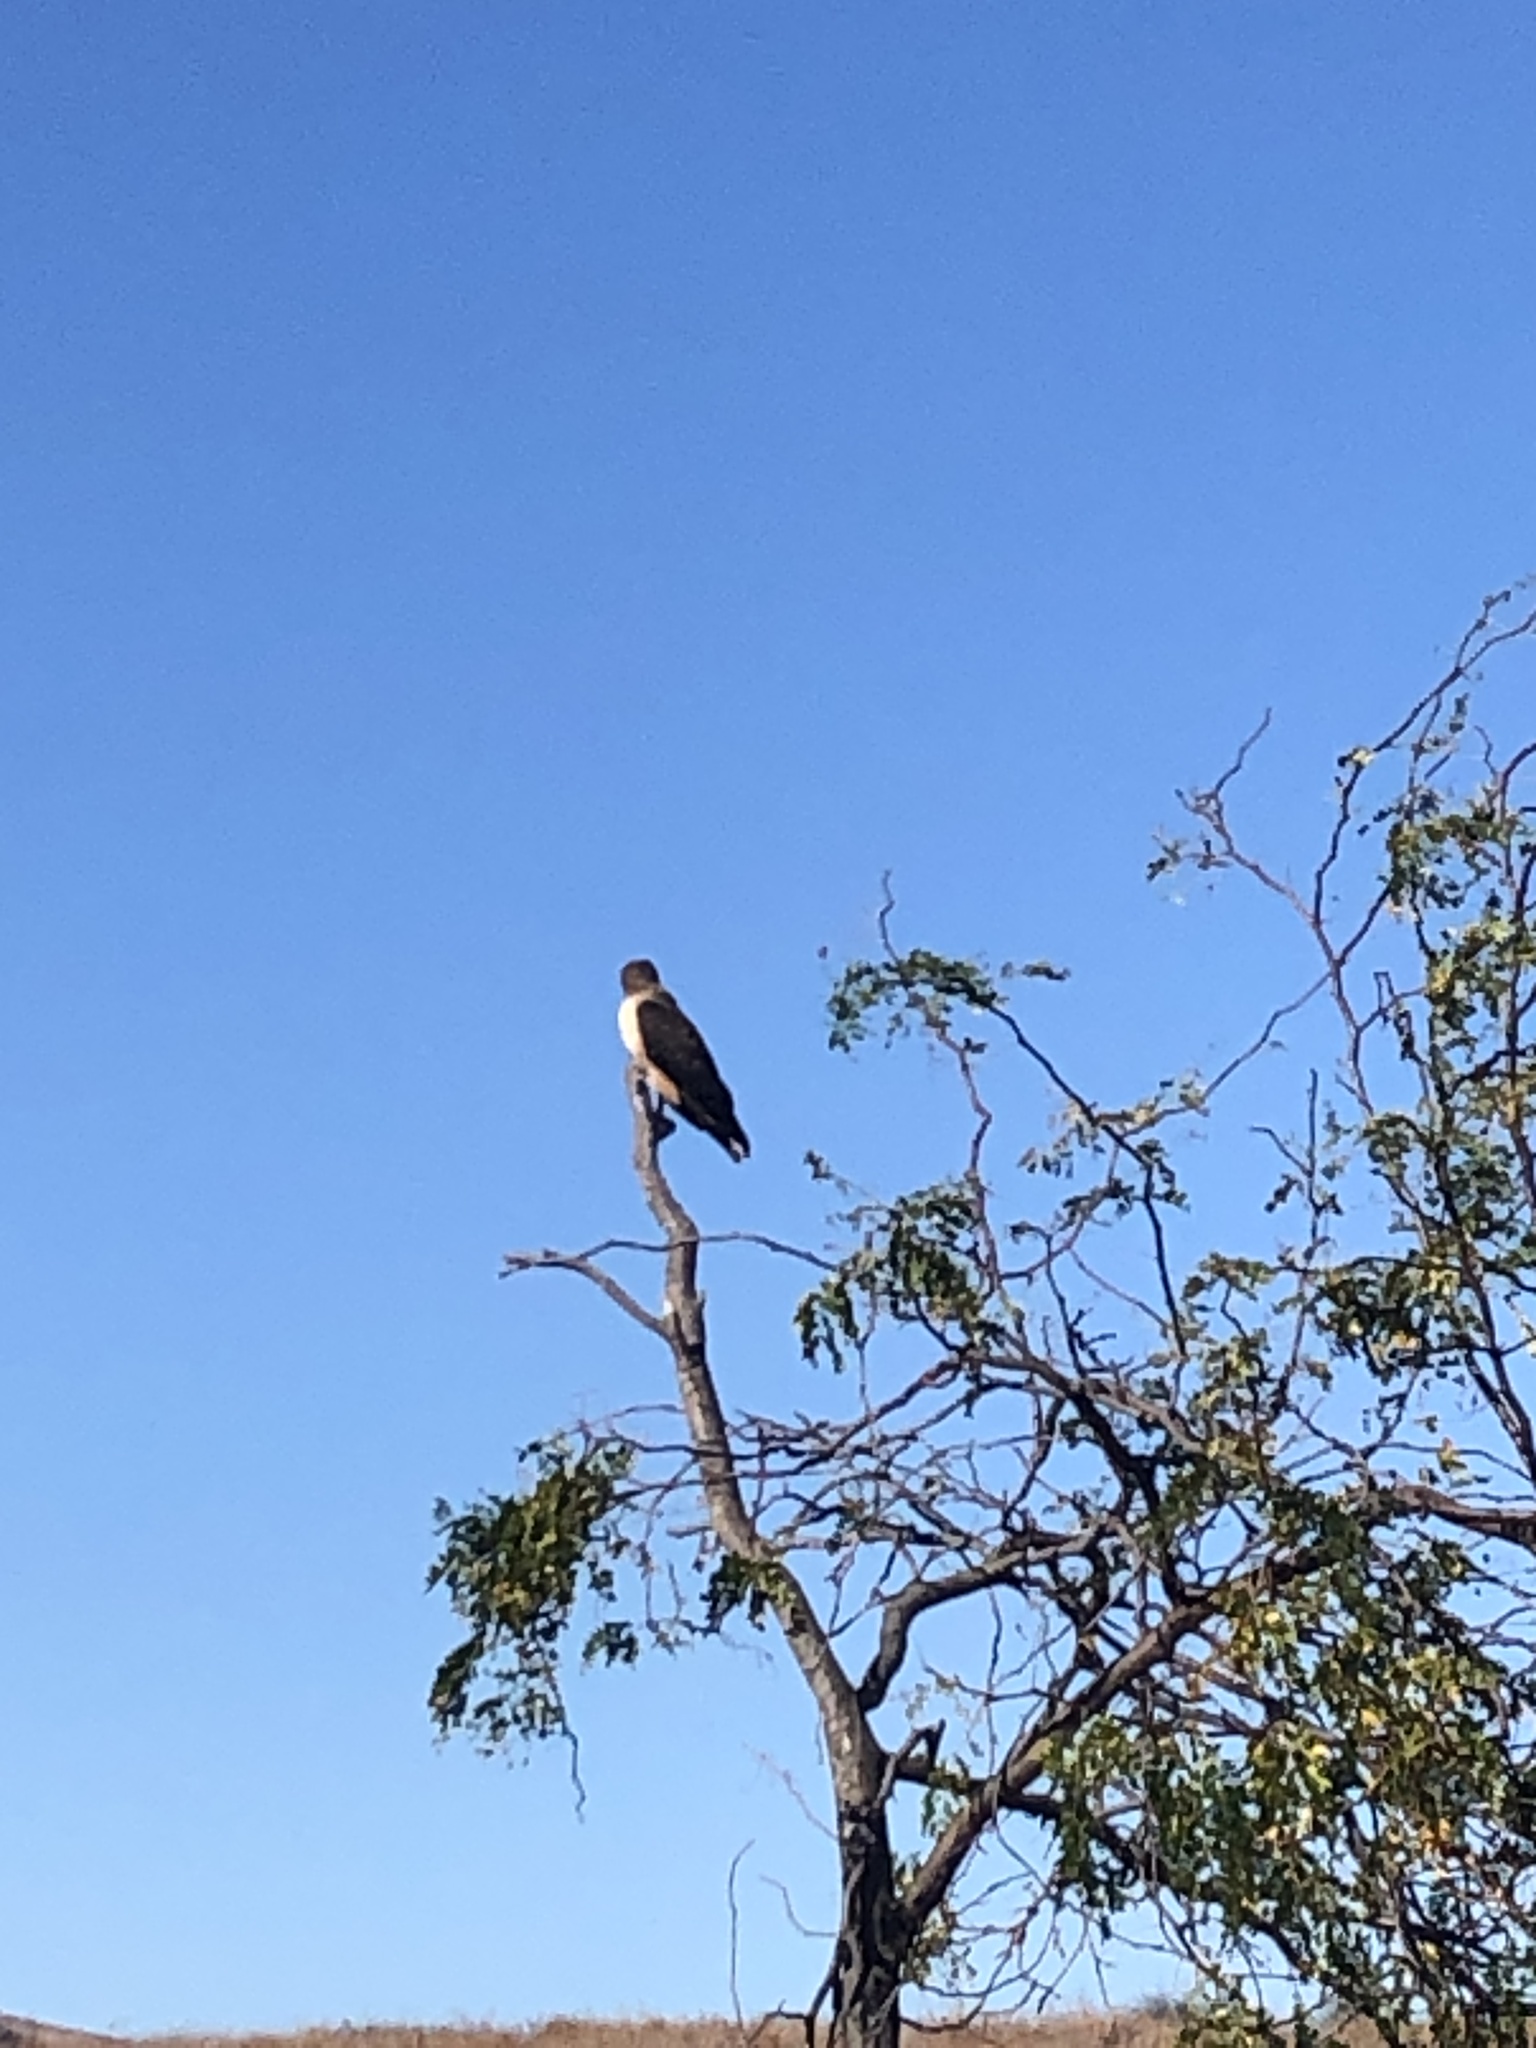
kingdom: Animalia
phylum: Chordata
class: Aves
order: Accipitriformes
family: Accipitridae
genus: Buteo
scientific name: Buteo jamaicensis
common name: Red-tailed hawk
